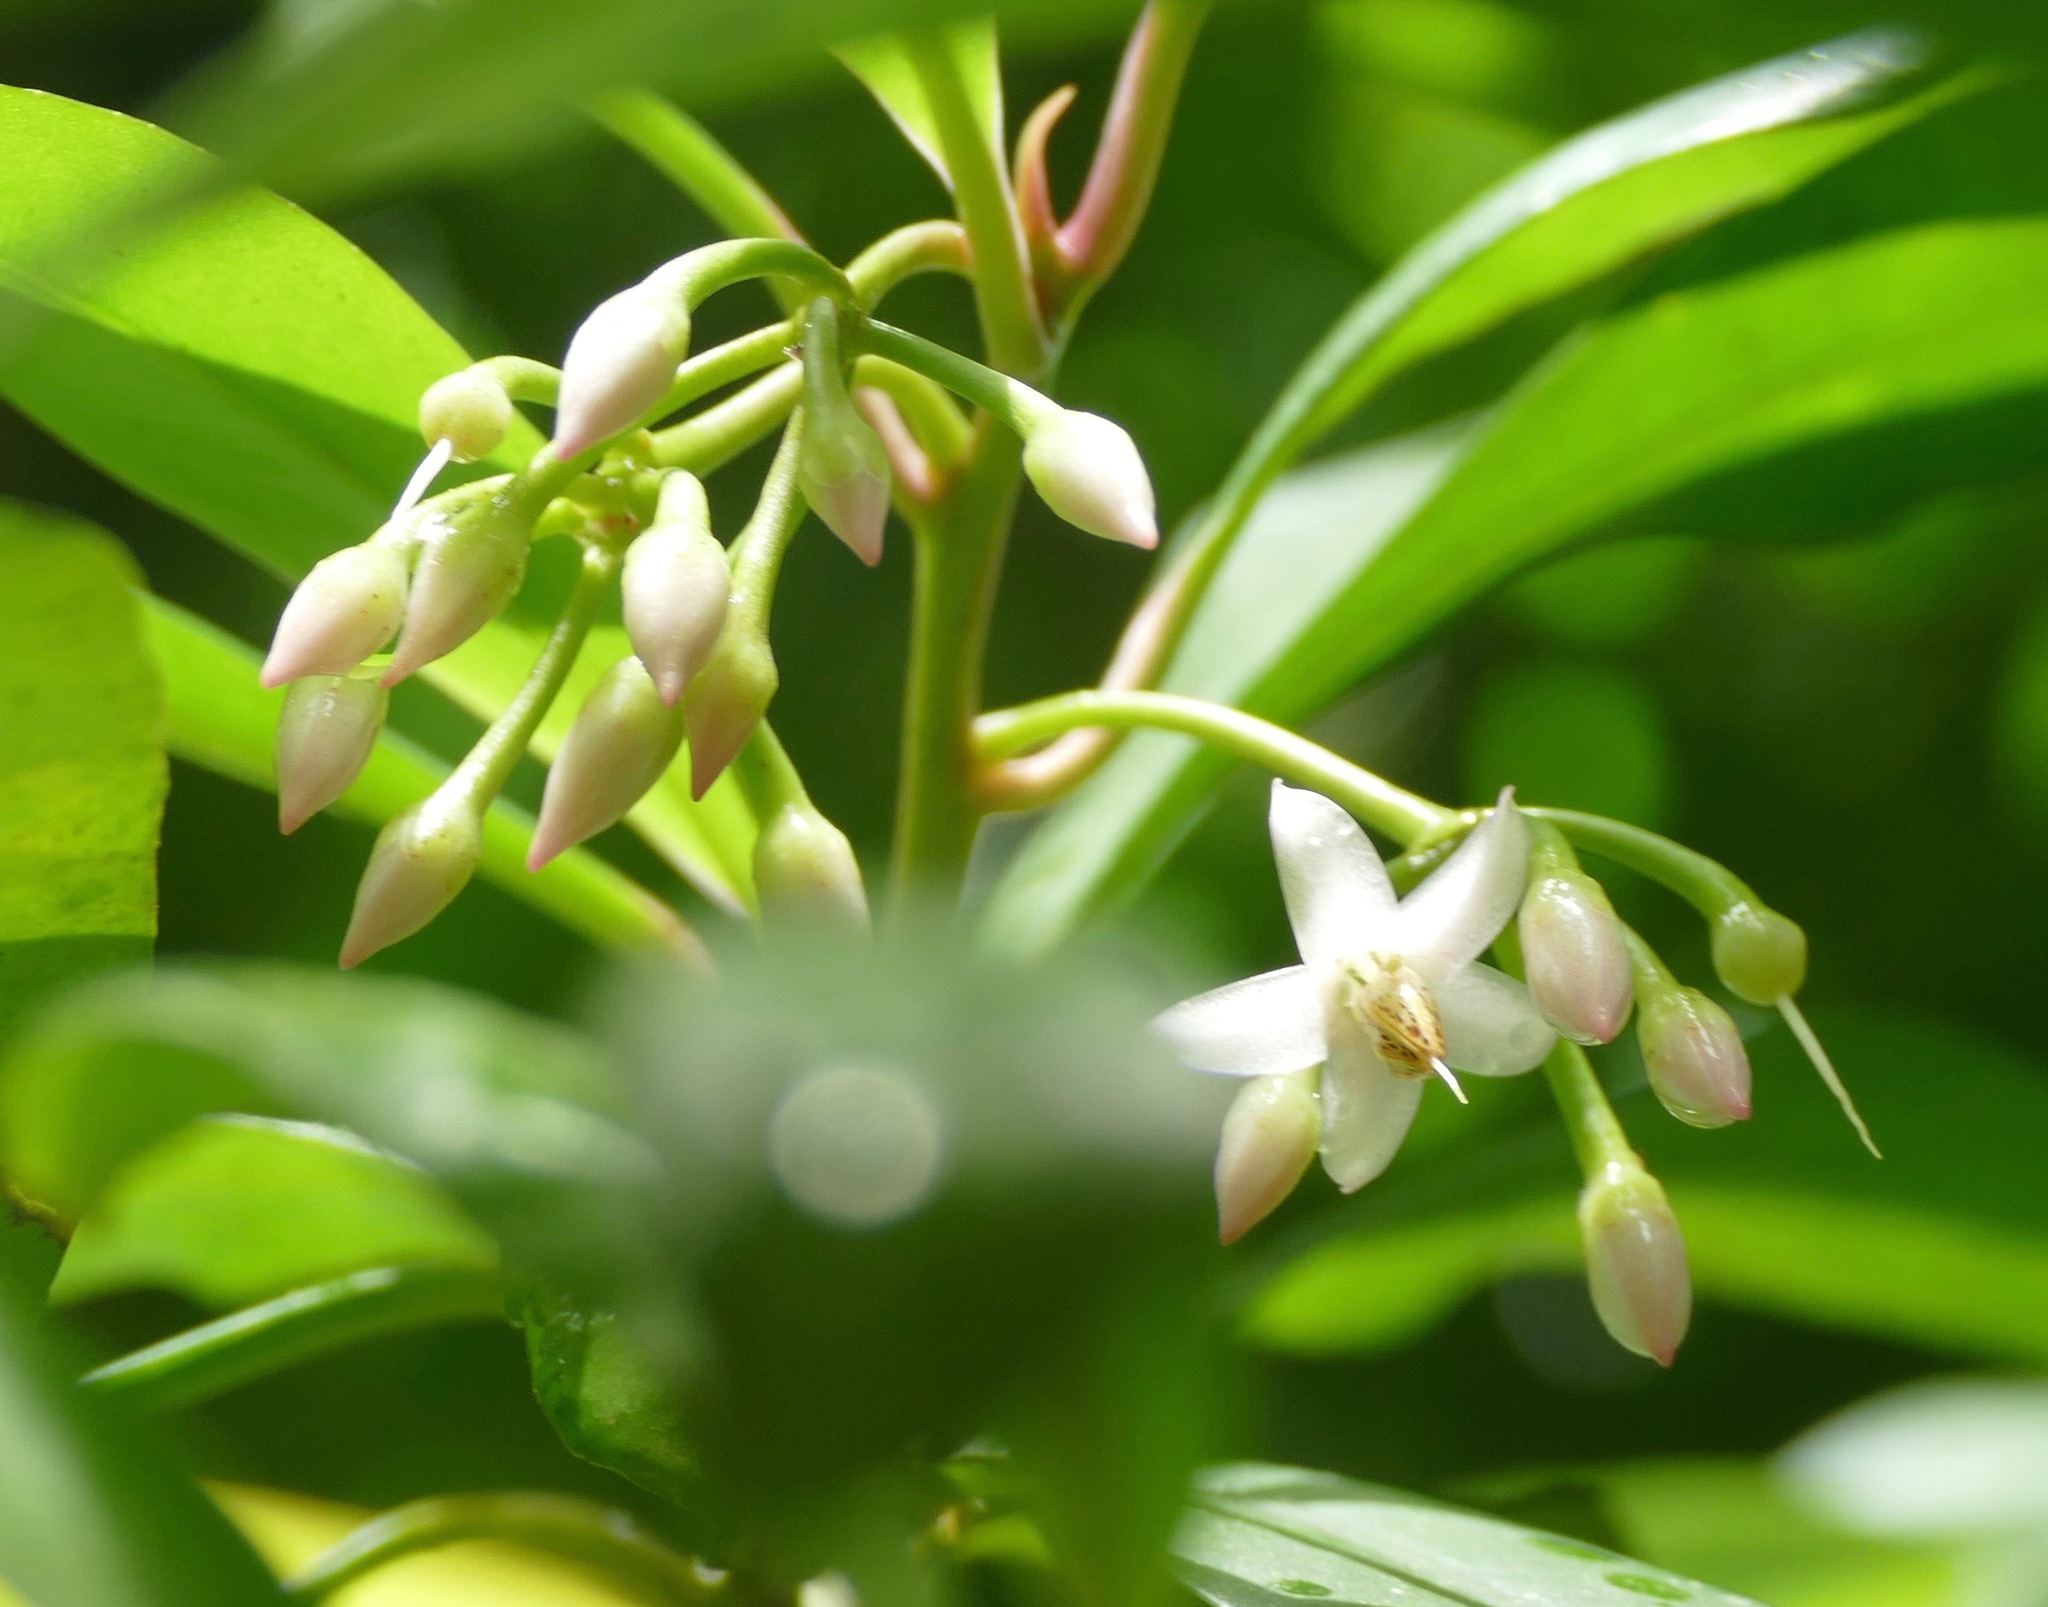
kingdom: Plantae
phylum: Tracheophyta
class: Magnoliopsida
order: Ericales
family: Primulaceae
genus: Ardisia
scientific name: Ardisia elliptica
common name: Shoebutton
